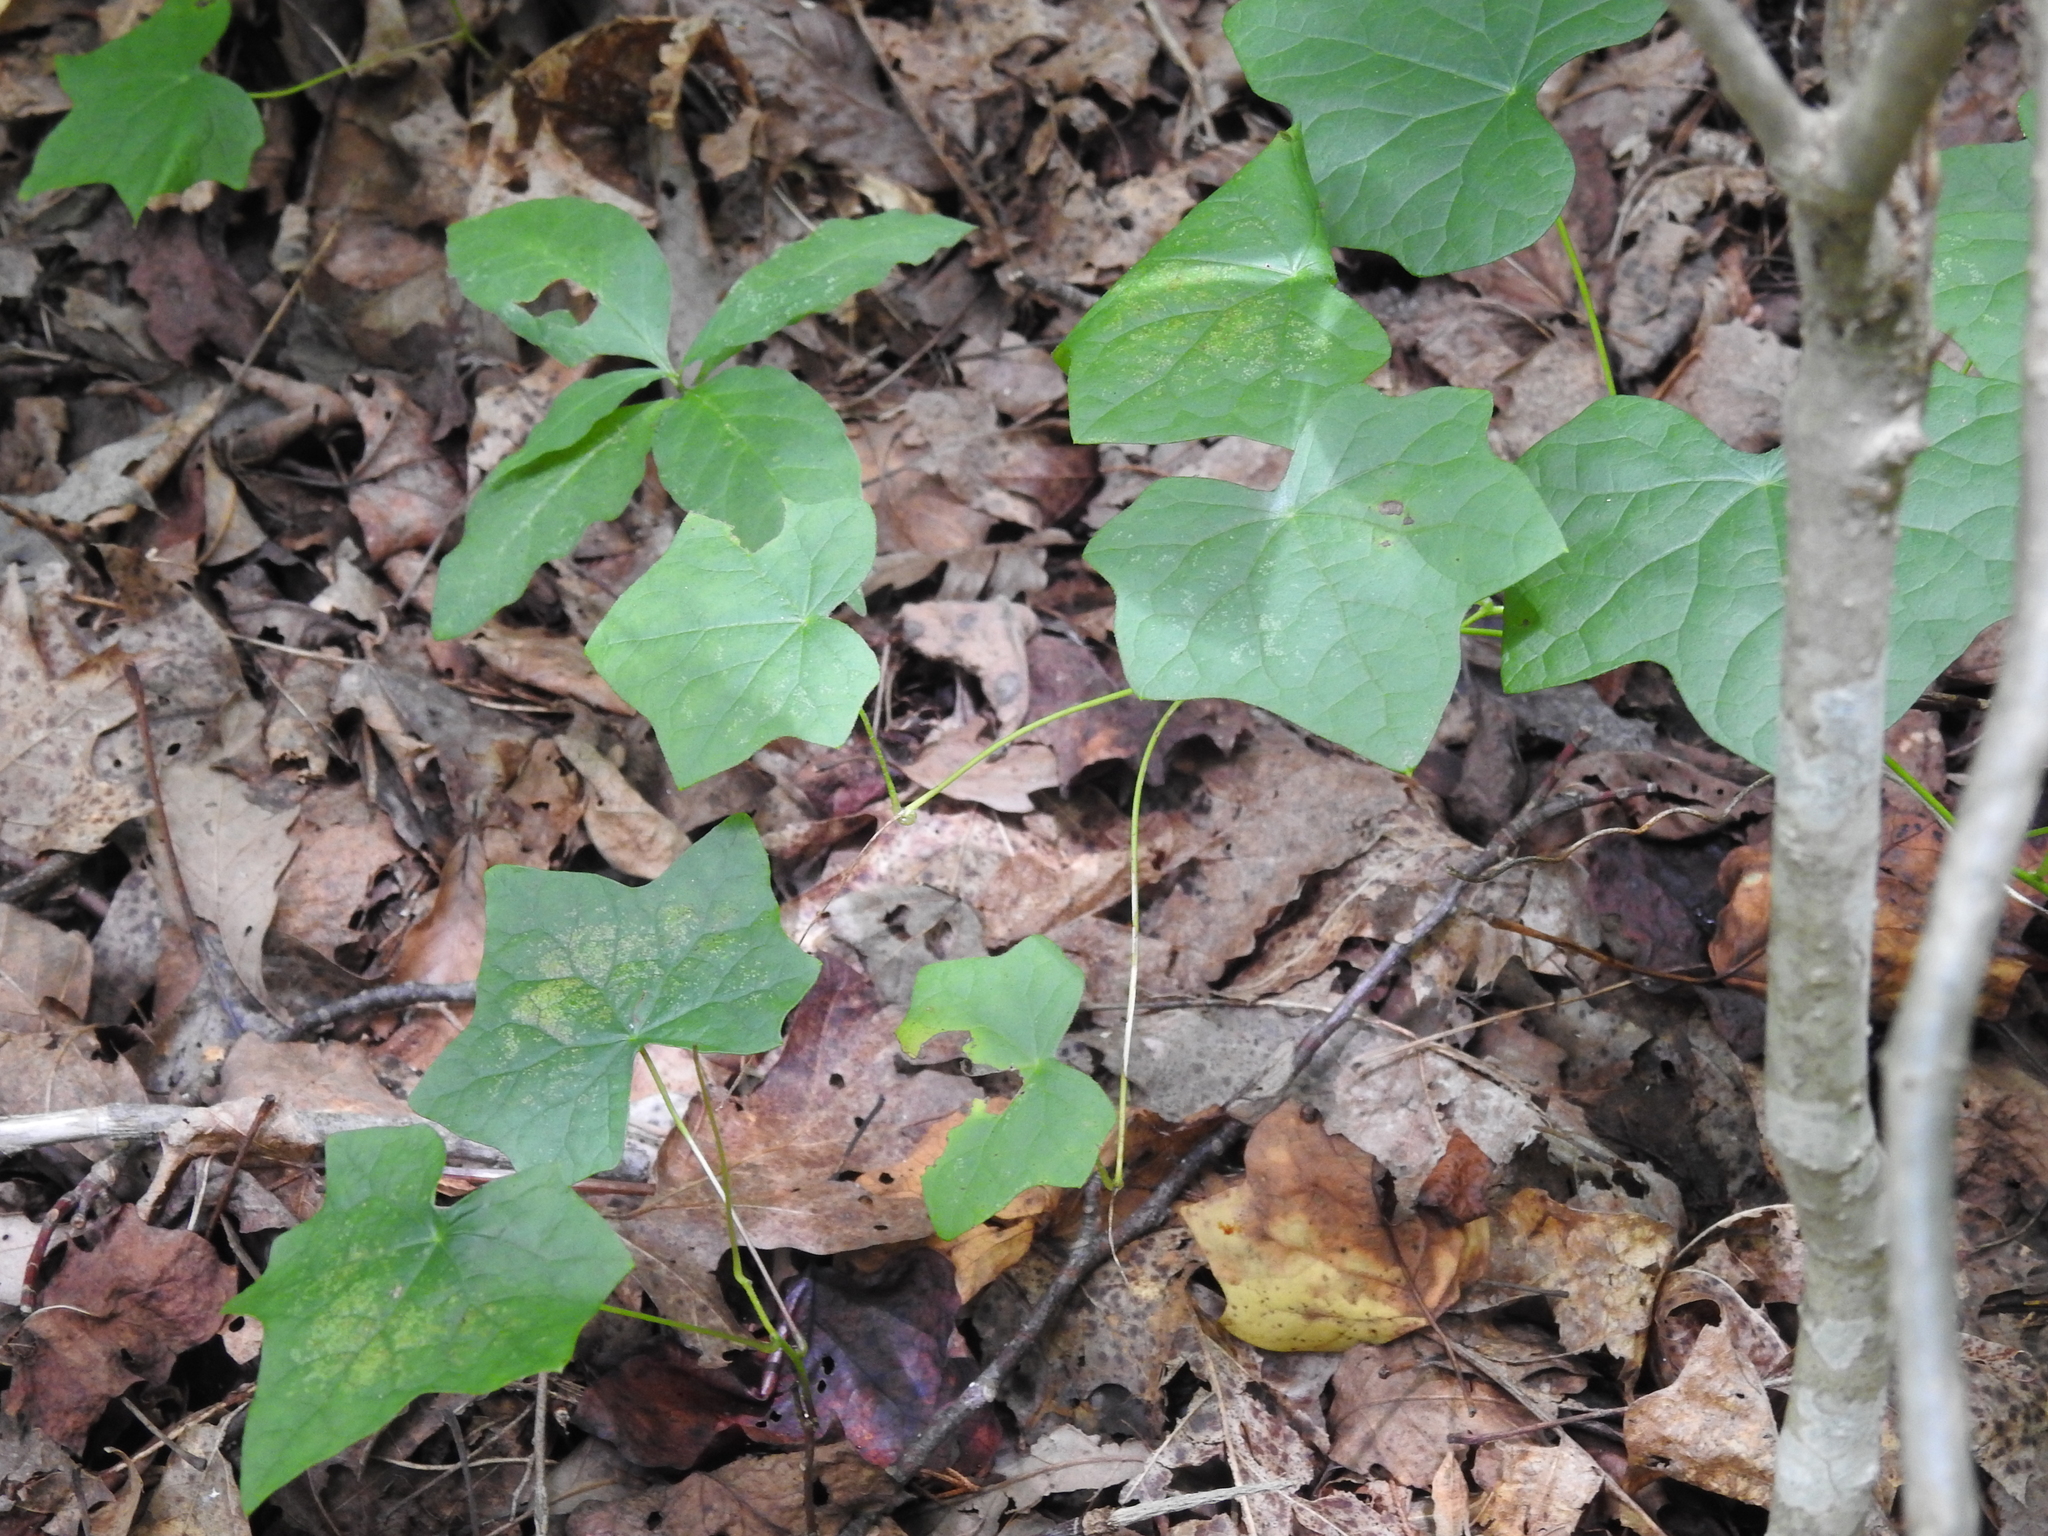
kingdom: Plantae
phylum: Tracheophyta
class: Magnoliopsida
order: Ranunculales
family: Menispermaceae
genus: Menispermum
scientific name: Menispermum canadense
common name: Moonseed
